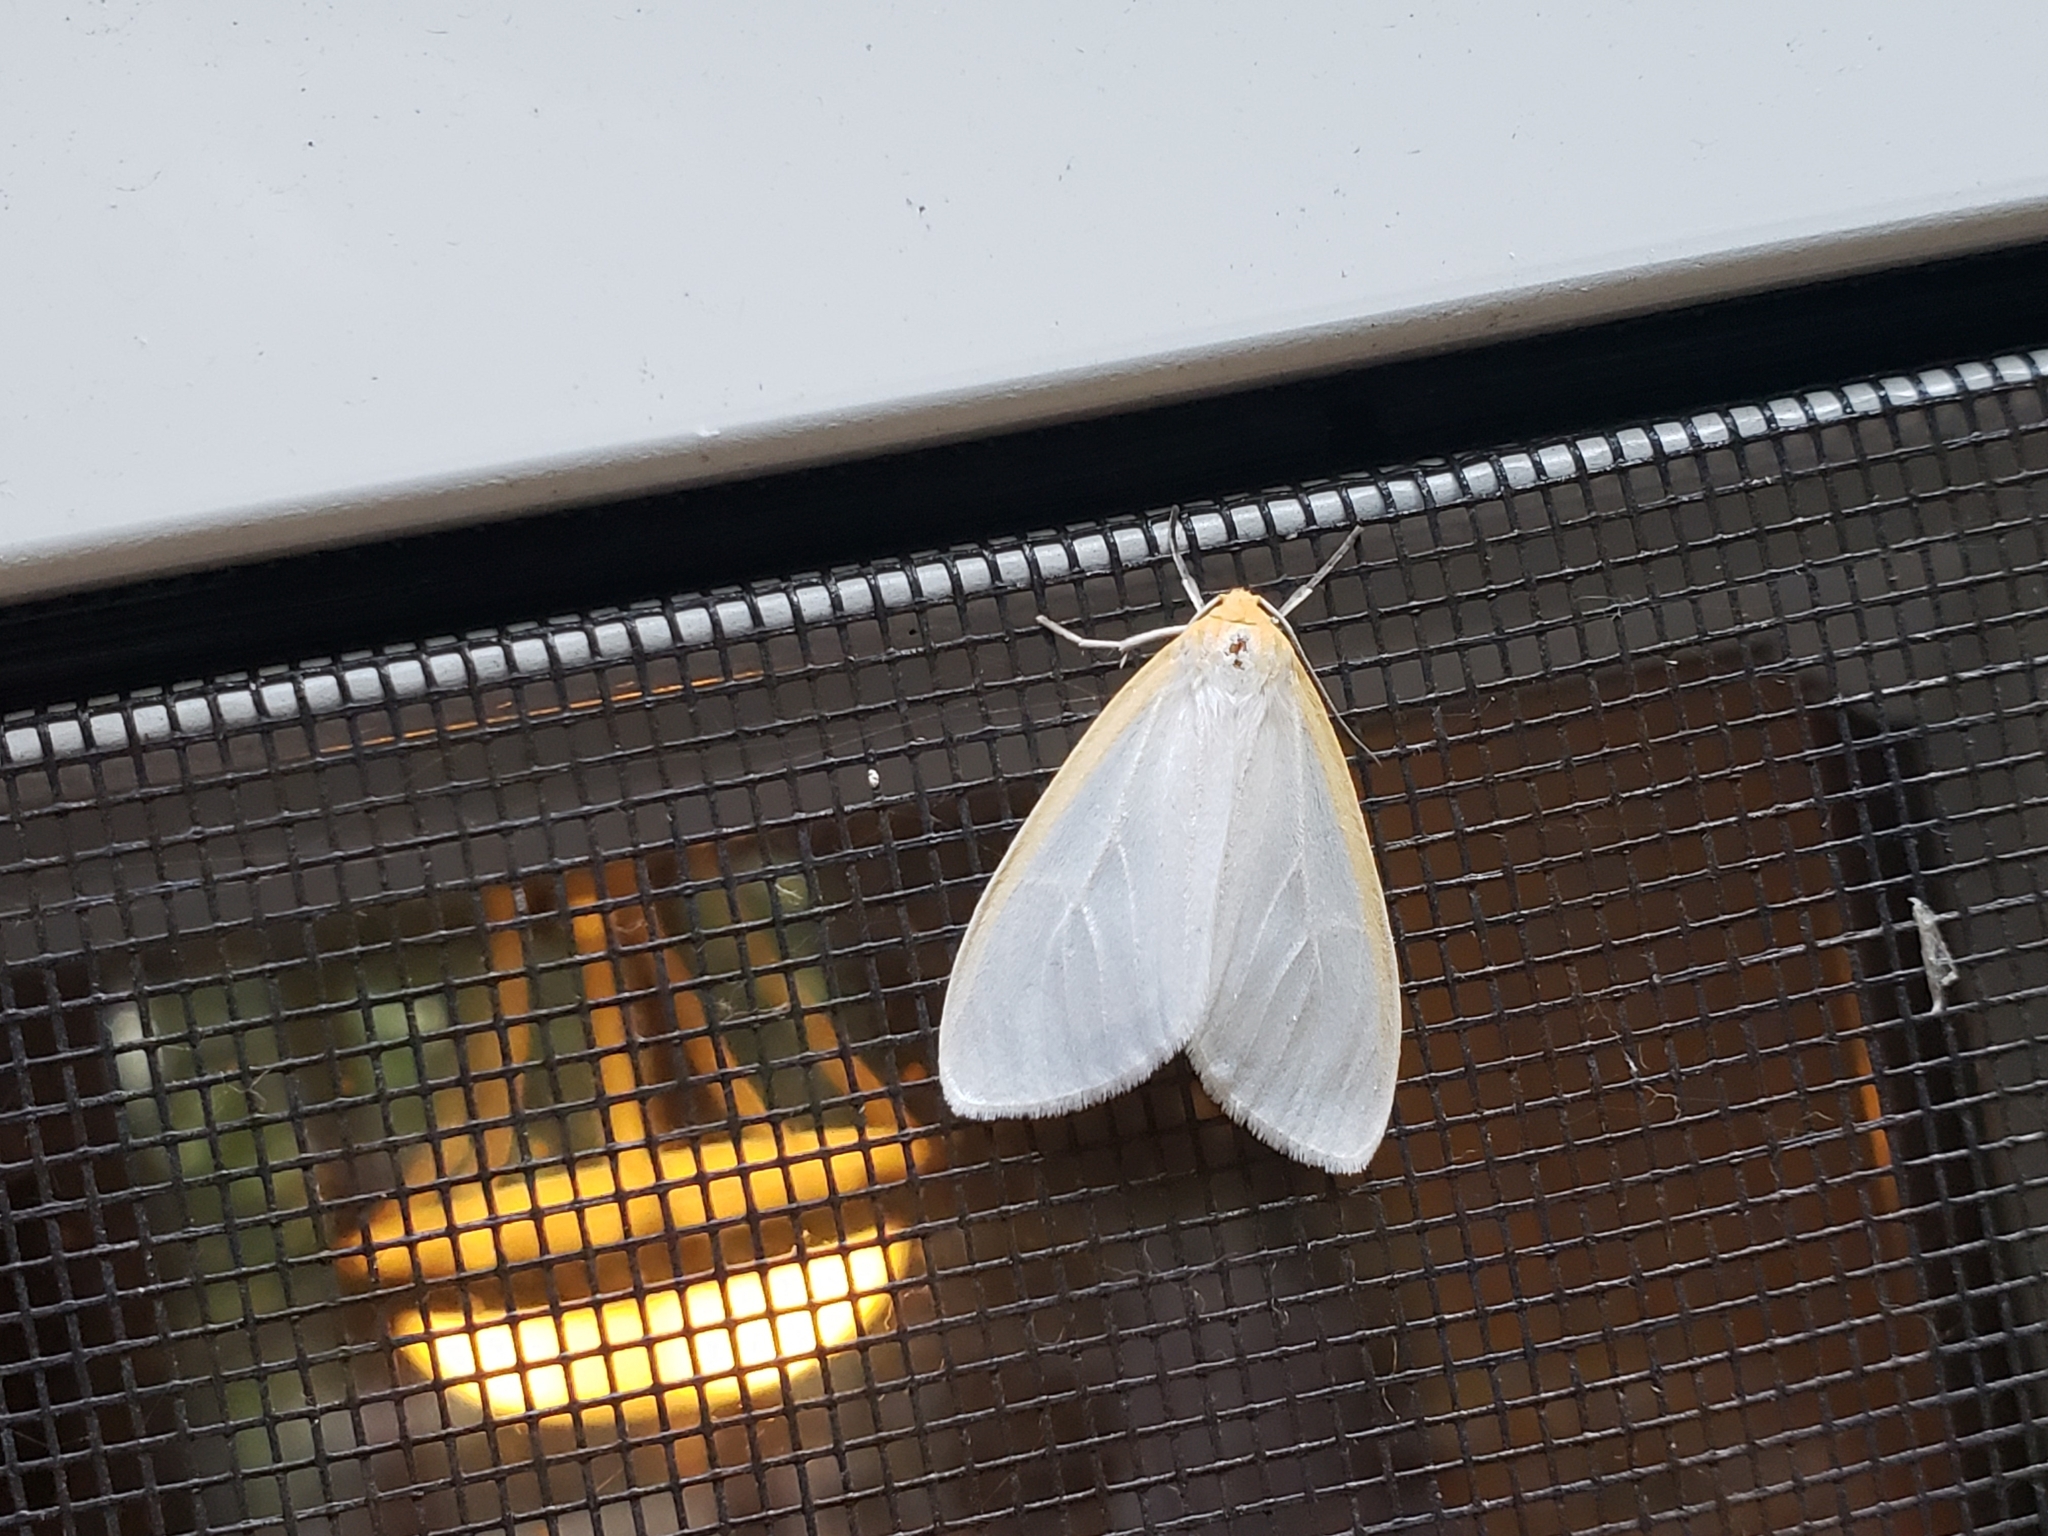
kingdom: Animalia
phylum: Arthropoda
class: Insecta
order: Lepidoptera
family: Erebidae
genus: Cycnia
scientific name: Cycnia tenera
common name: Delicate cycnia moth
